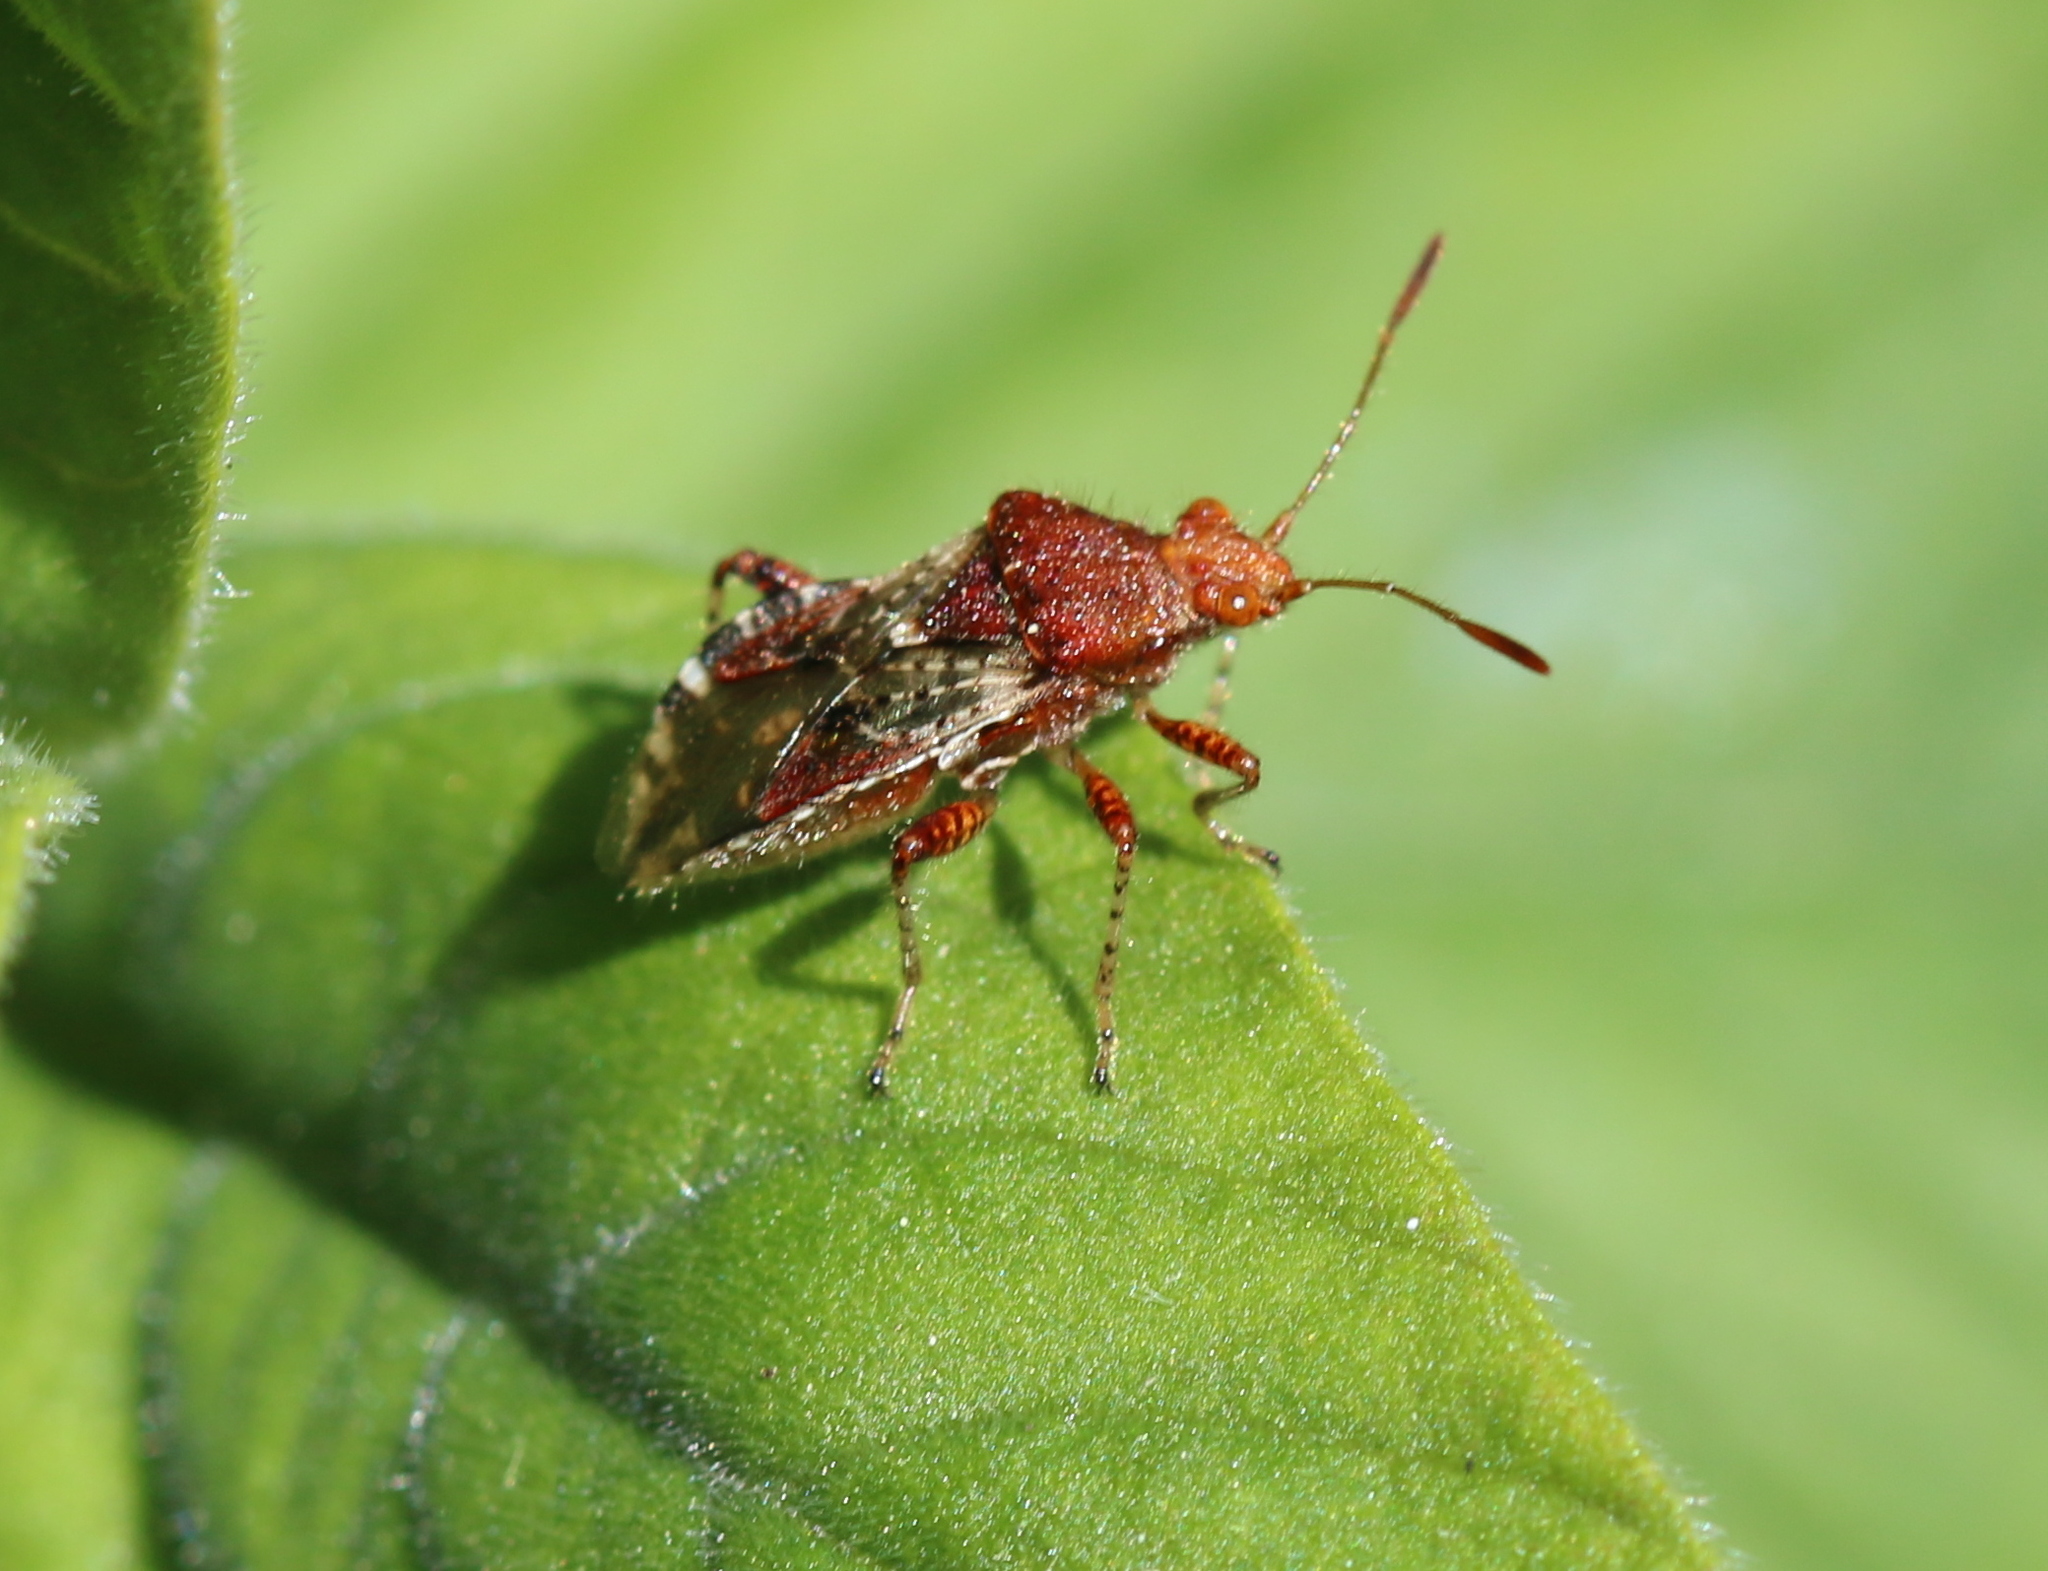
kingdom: Animalia
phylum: Arthropoda
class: Insecta
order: Hemiptera
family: Rhopalidae
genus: Rhopalus
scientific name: Rhopalus subrufus
